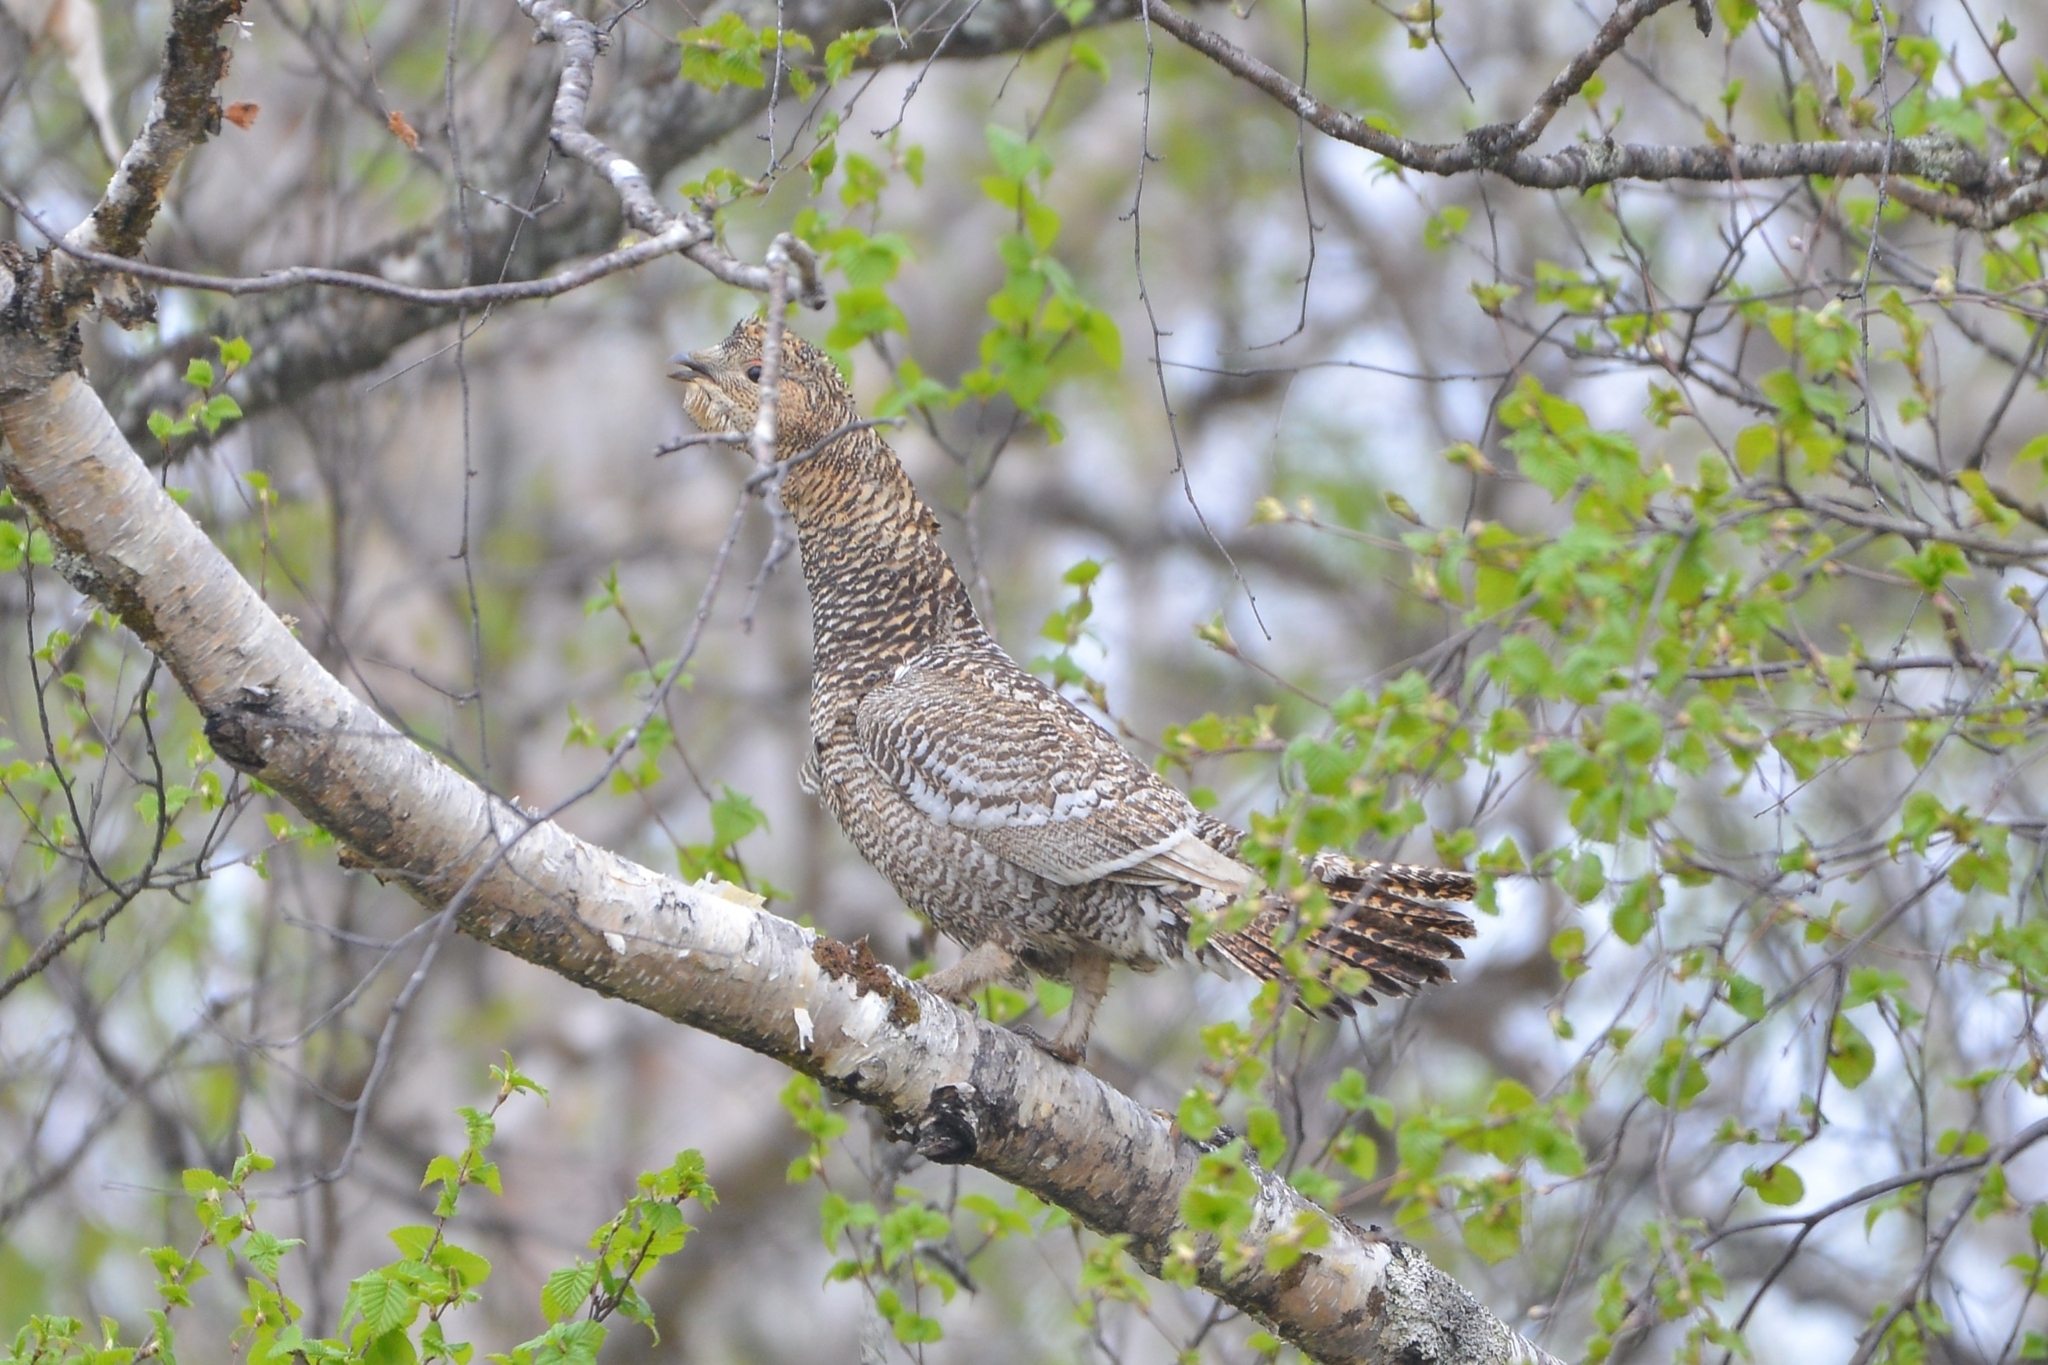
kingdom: Animalia
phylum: Chordata
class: Aves
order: Galliformes
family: Phasianidae
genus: Tetrao
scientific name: Tetrao urogalloides
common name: Black-billed capercaillie
